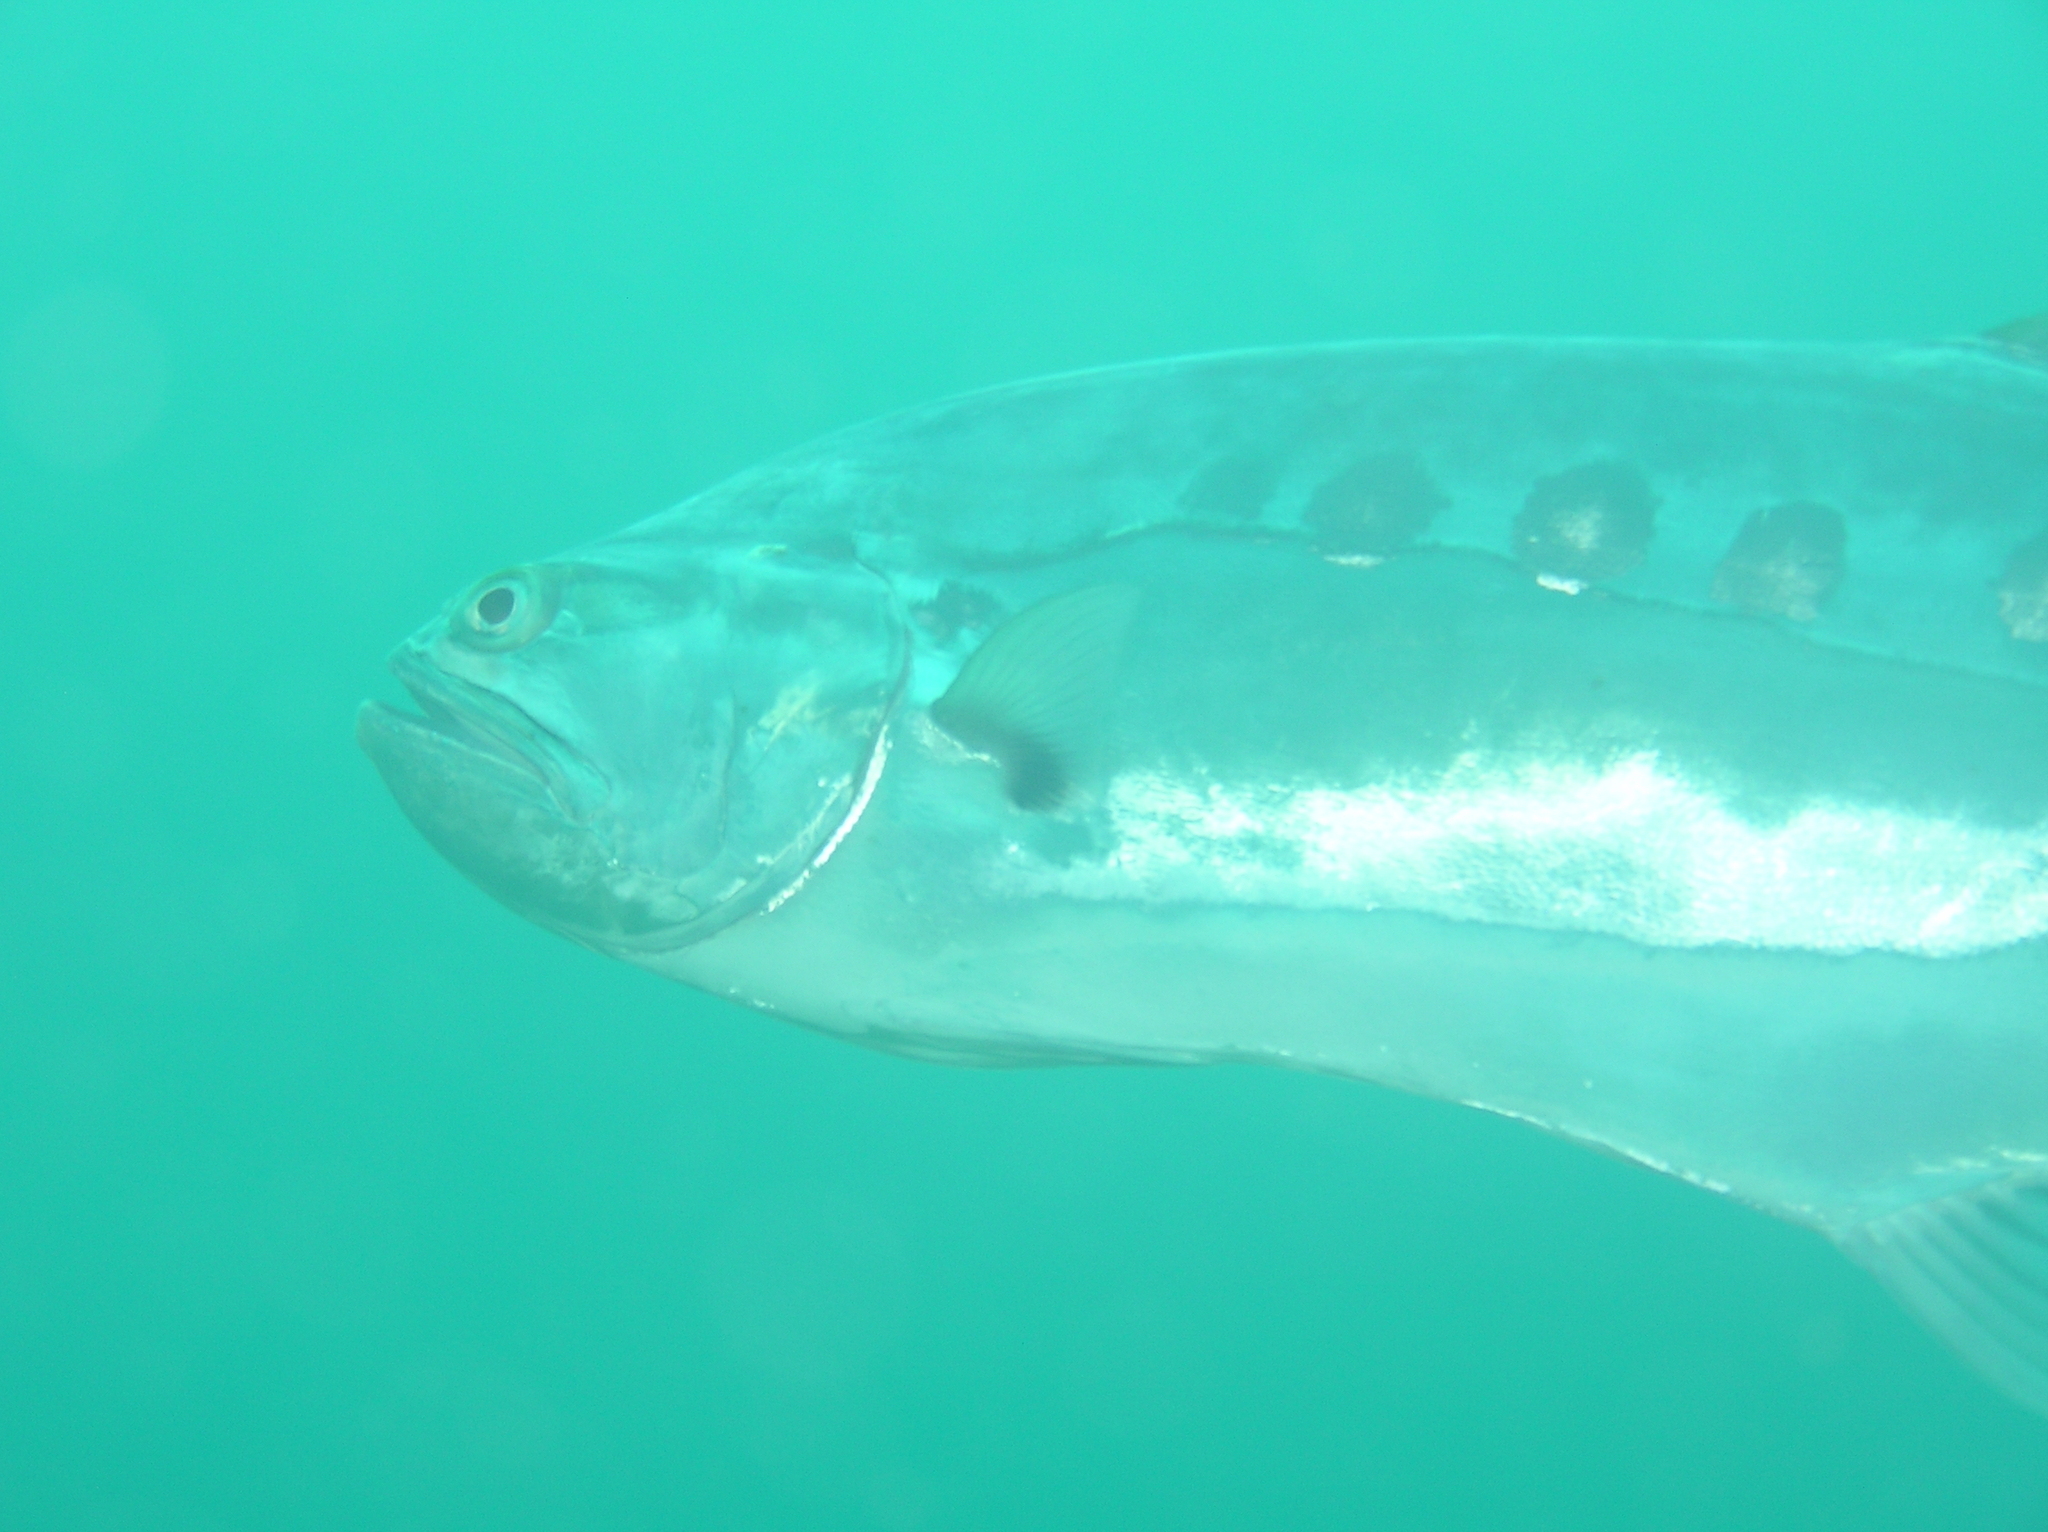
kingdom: Animalia
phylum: Chordata
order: Perciformes
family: Carangidae
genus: Scomberoides
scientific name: Scomberoides commersonnianus
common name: Talang queenfish
